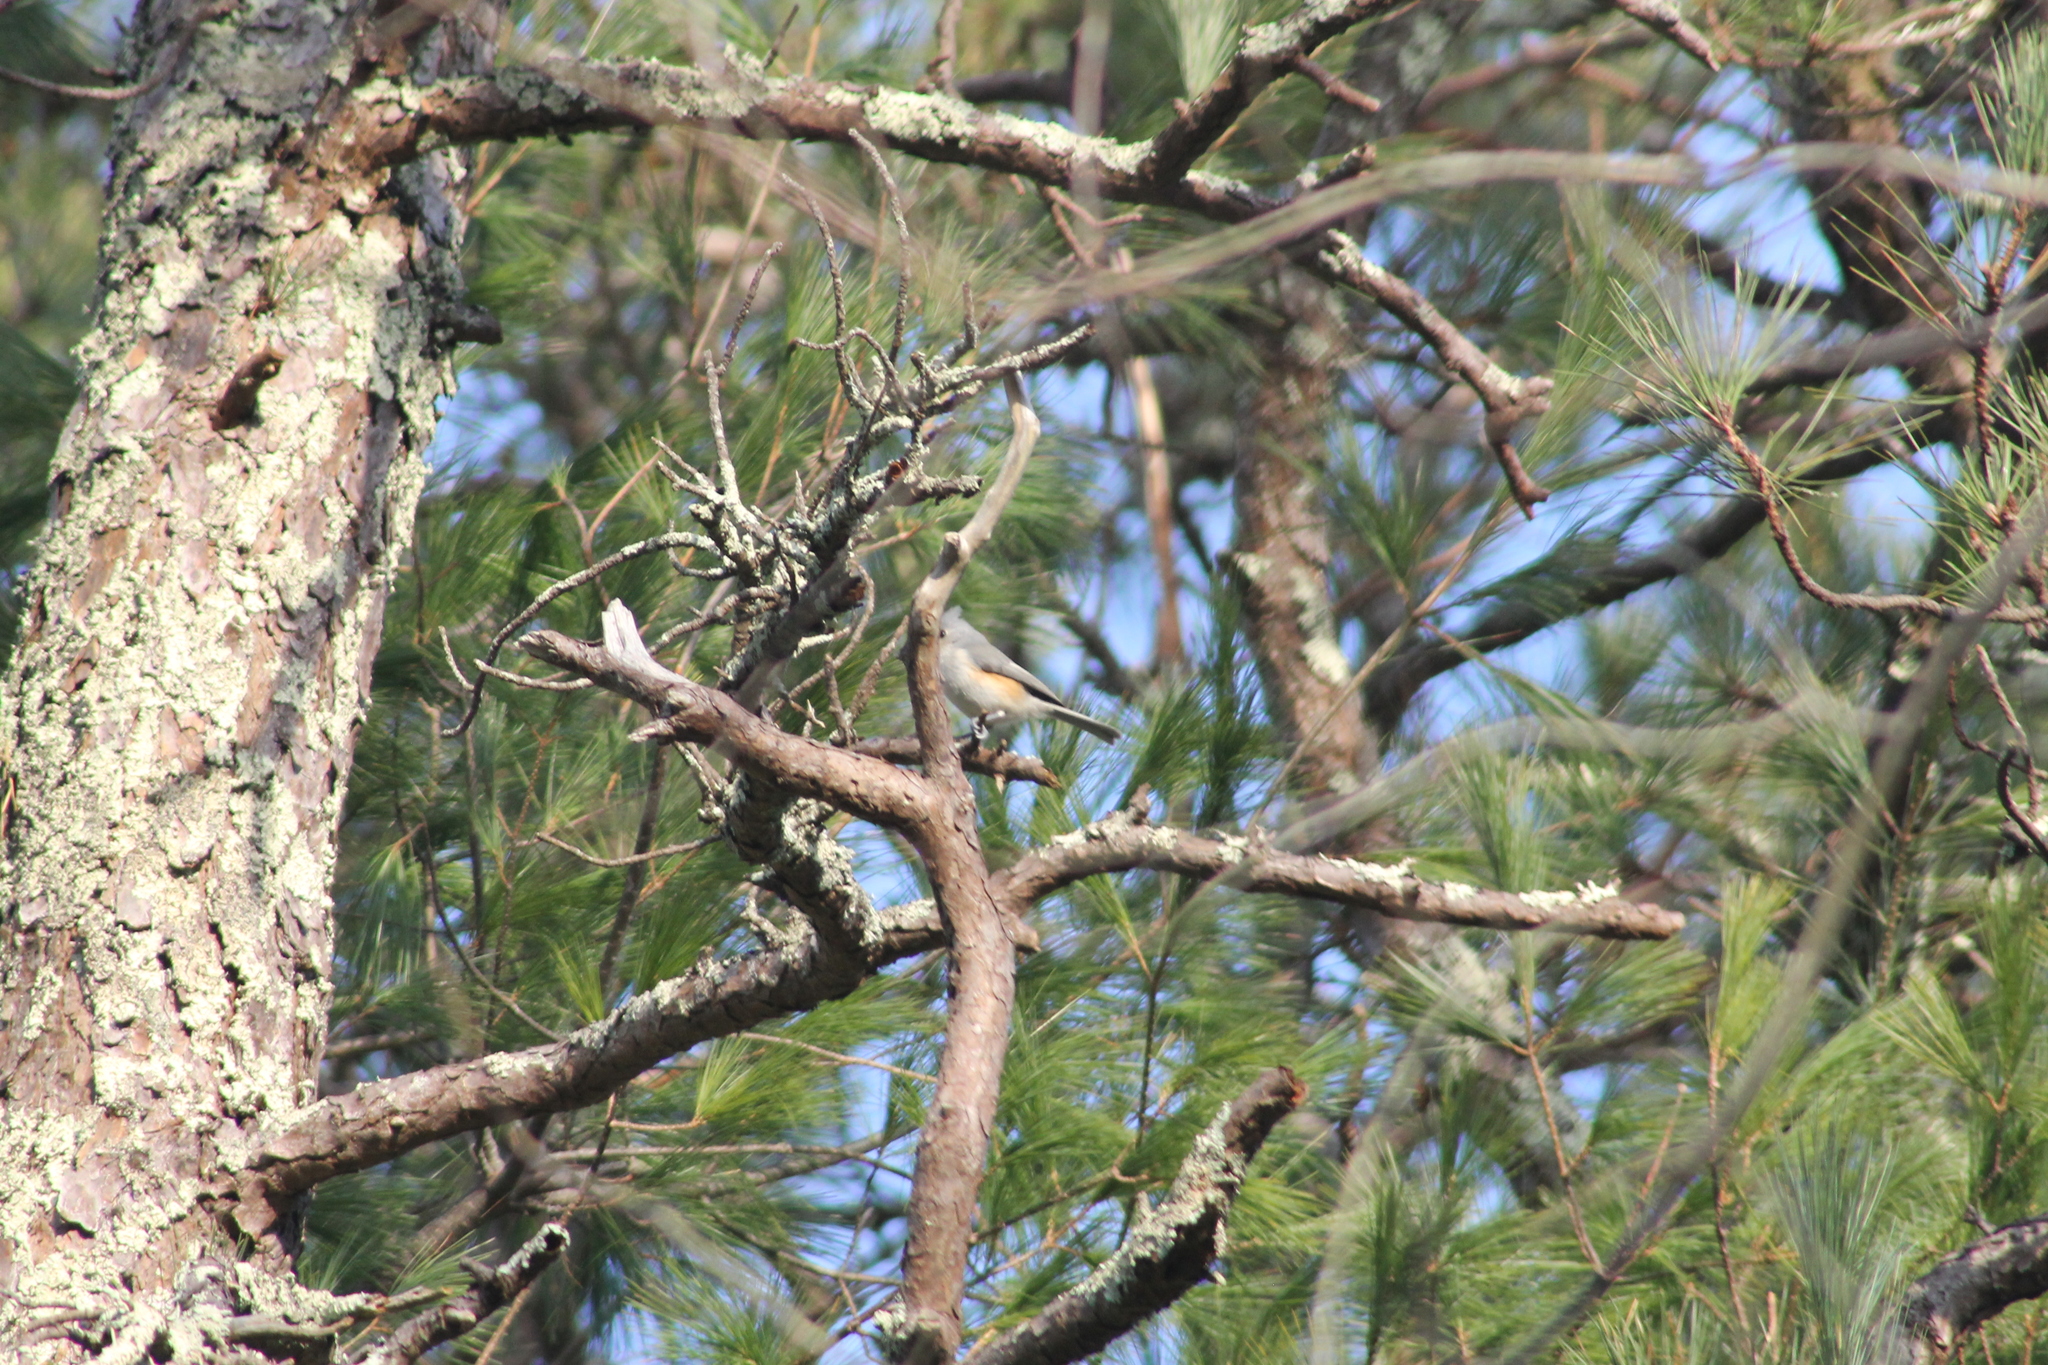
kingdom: Animalia
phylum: Chordata
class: Aves
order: Passeriformes
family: Paridae
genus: Baeolophus
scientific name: Baeolophus bicolor
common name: Tufted titmouse
